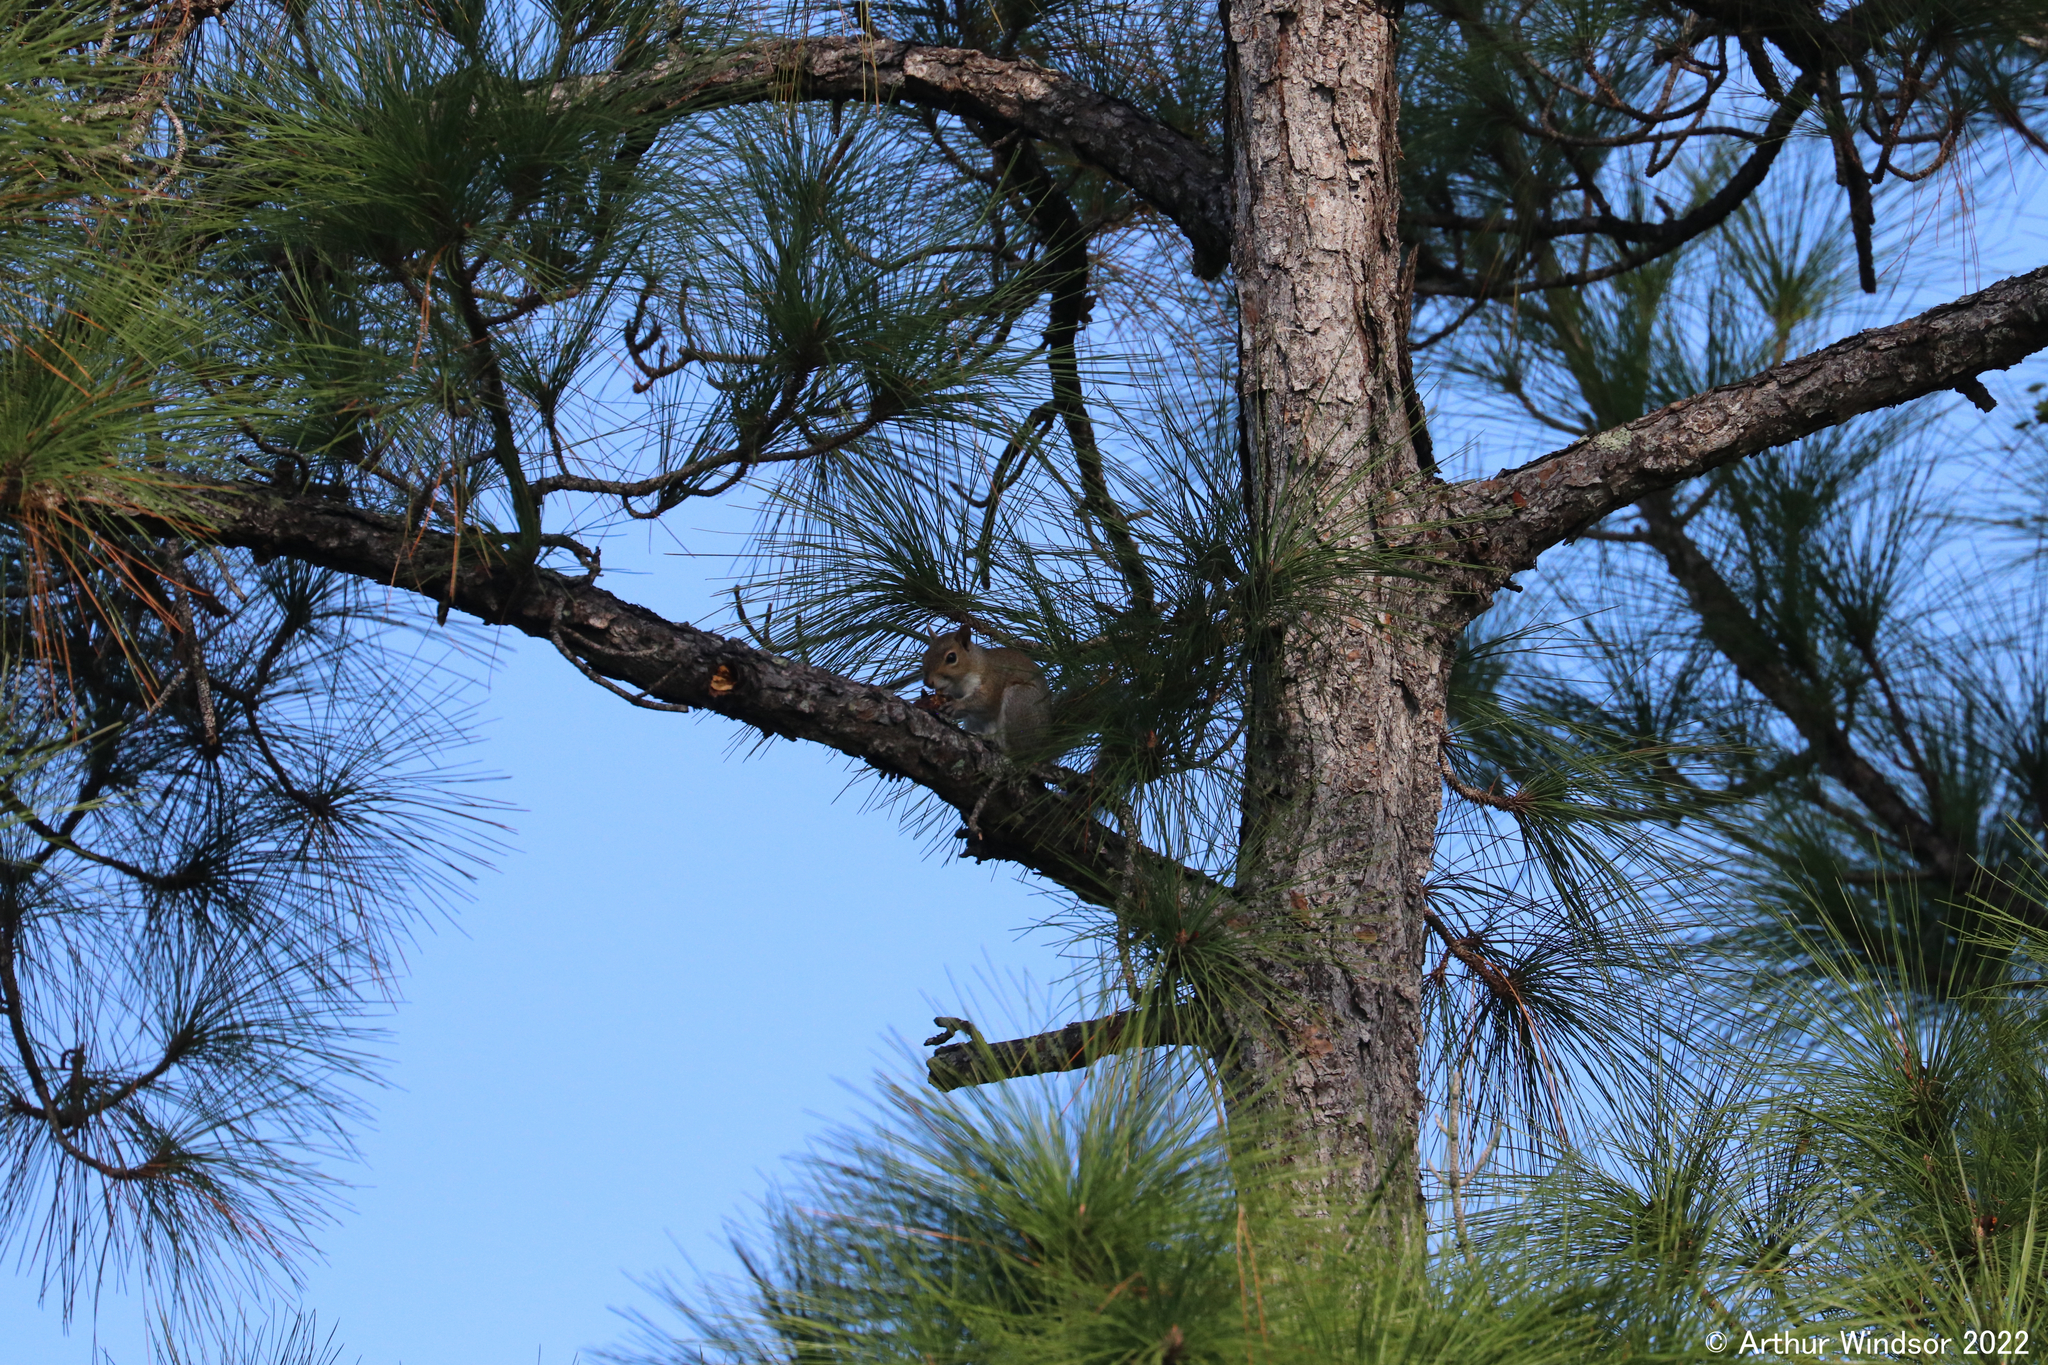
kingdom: Animalia
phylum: Chordata
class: Mammalia
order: Rodentia
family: Sciuridae
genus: Sciurus
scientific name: Sciurus carolinensis
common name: Eastern gray squirrel
